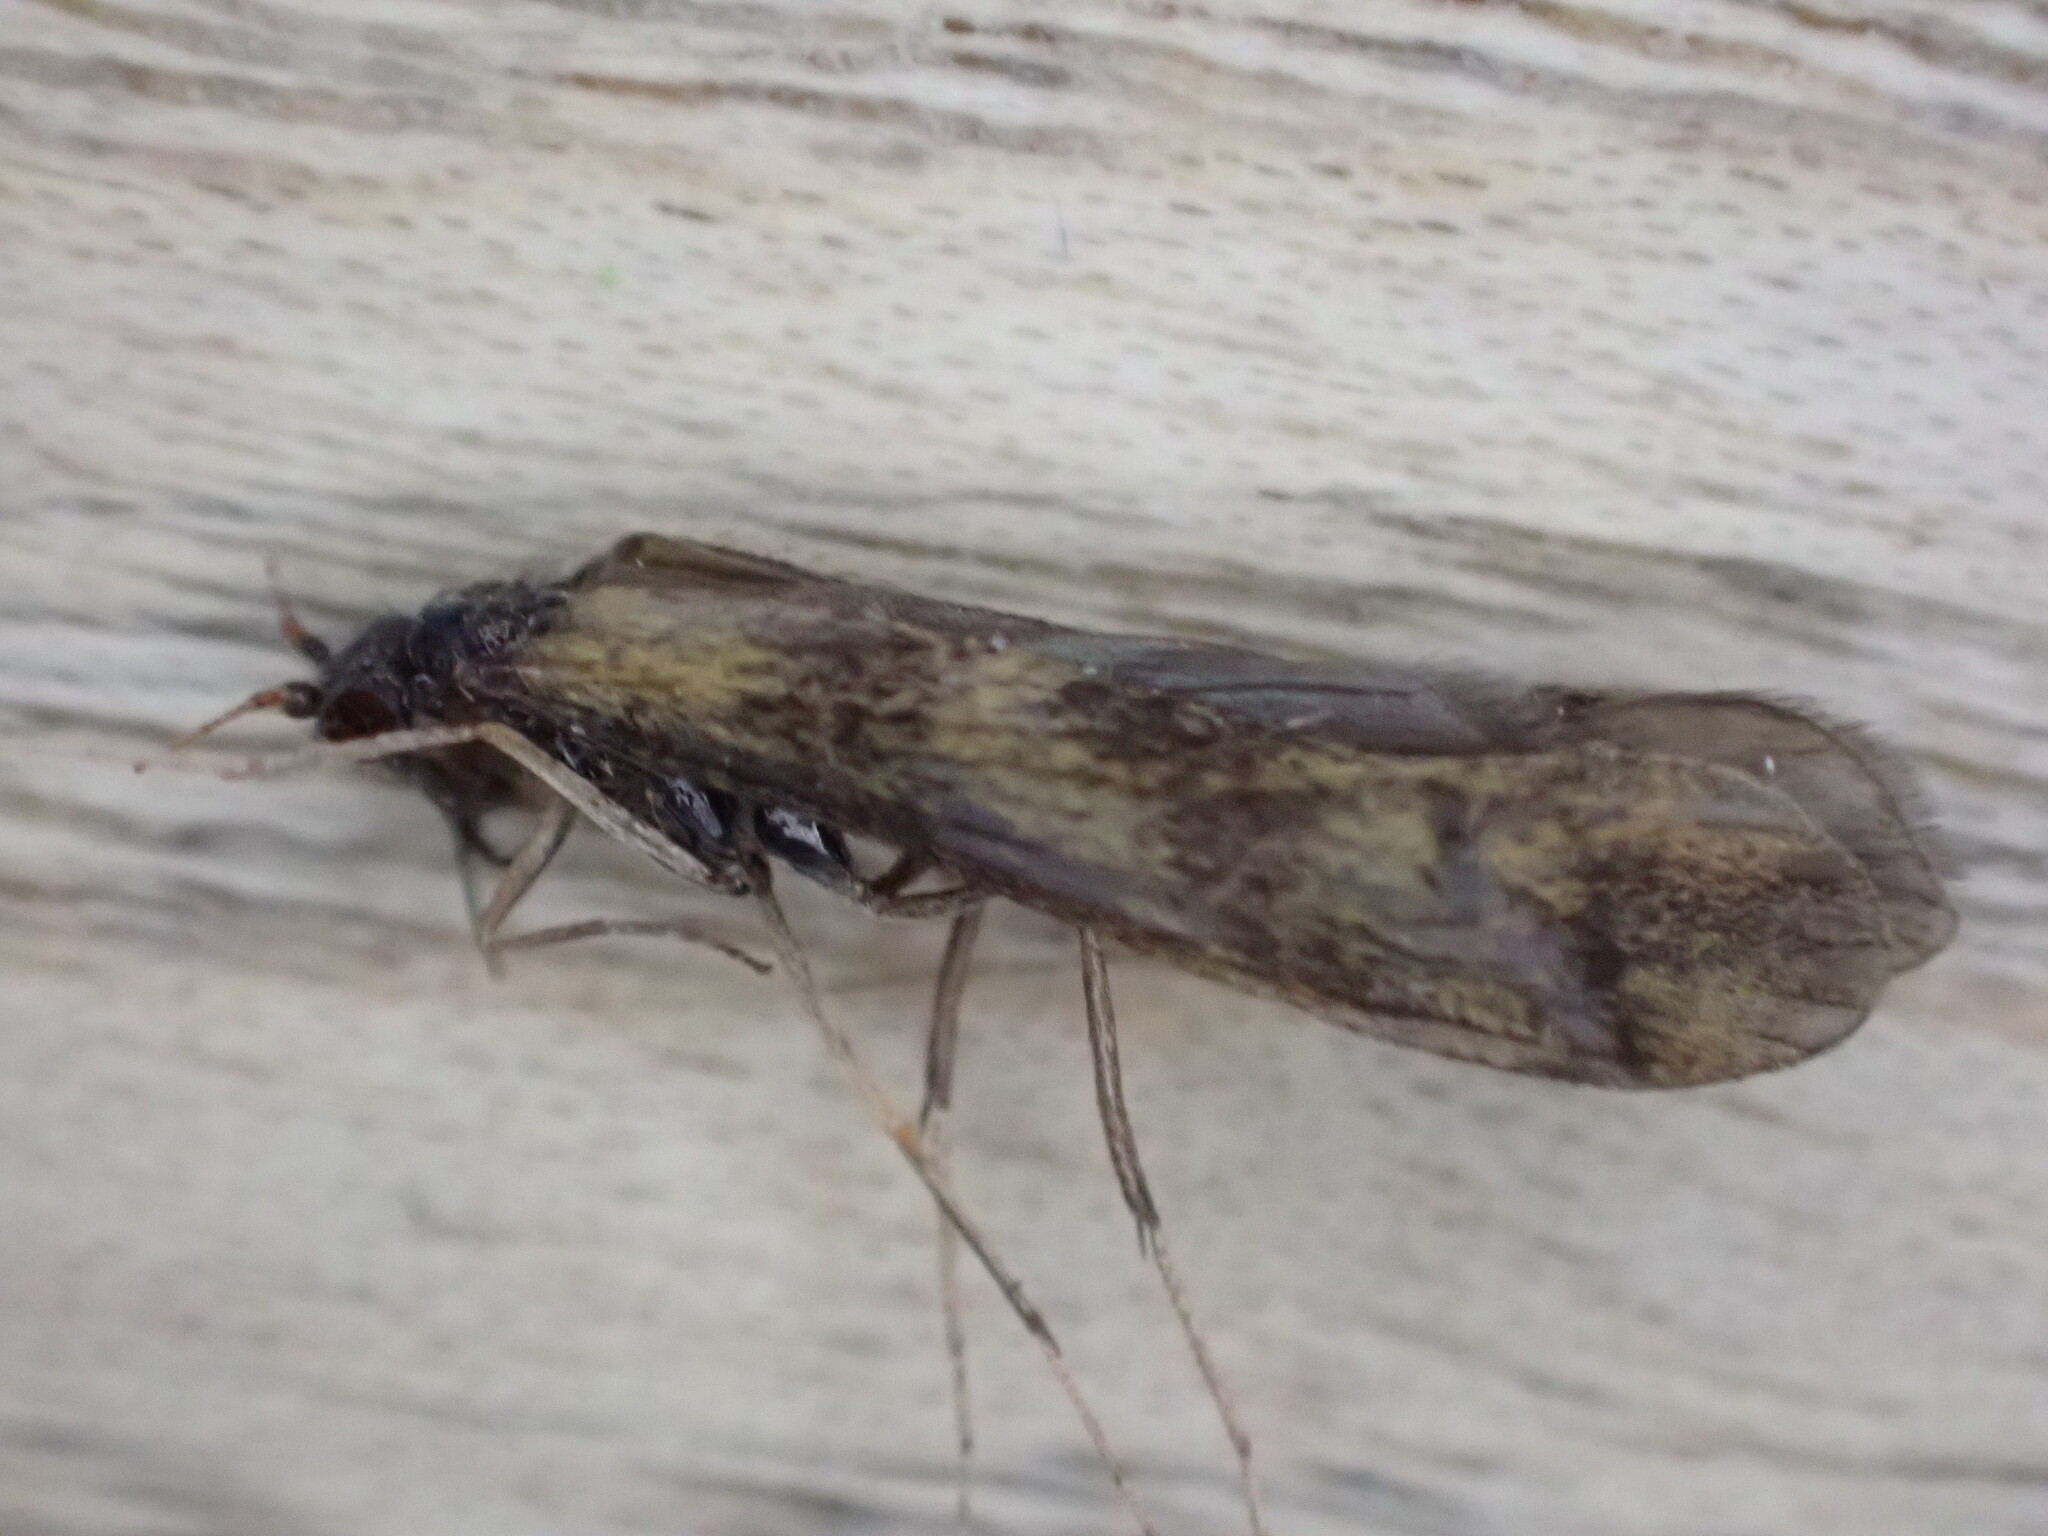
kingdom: Animalia
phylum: Arthropoda
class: Insecta
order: Trichoptera
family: Leptoceridae
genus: Mystacides
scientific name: Mystacides longicornis
